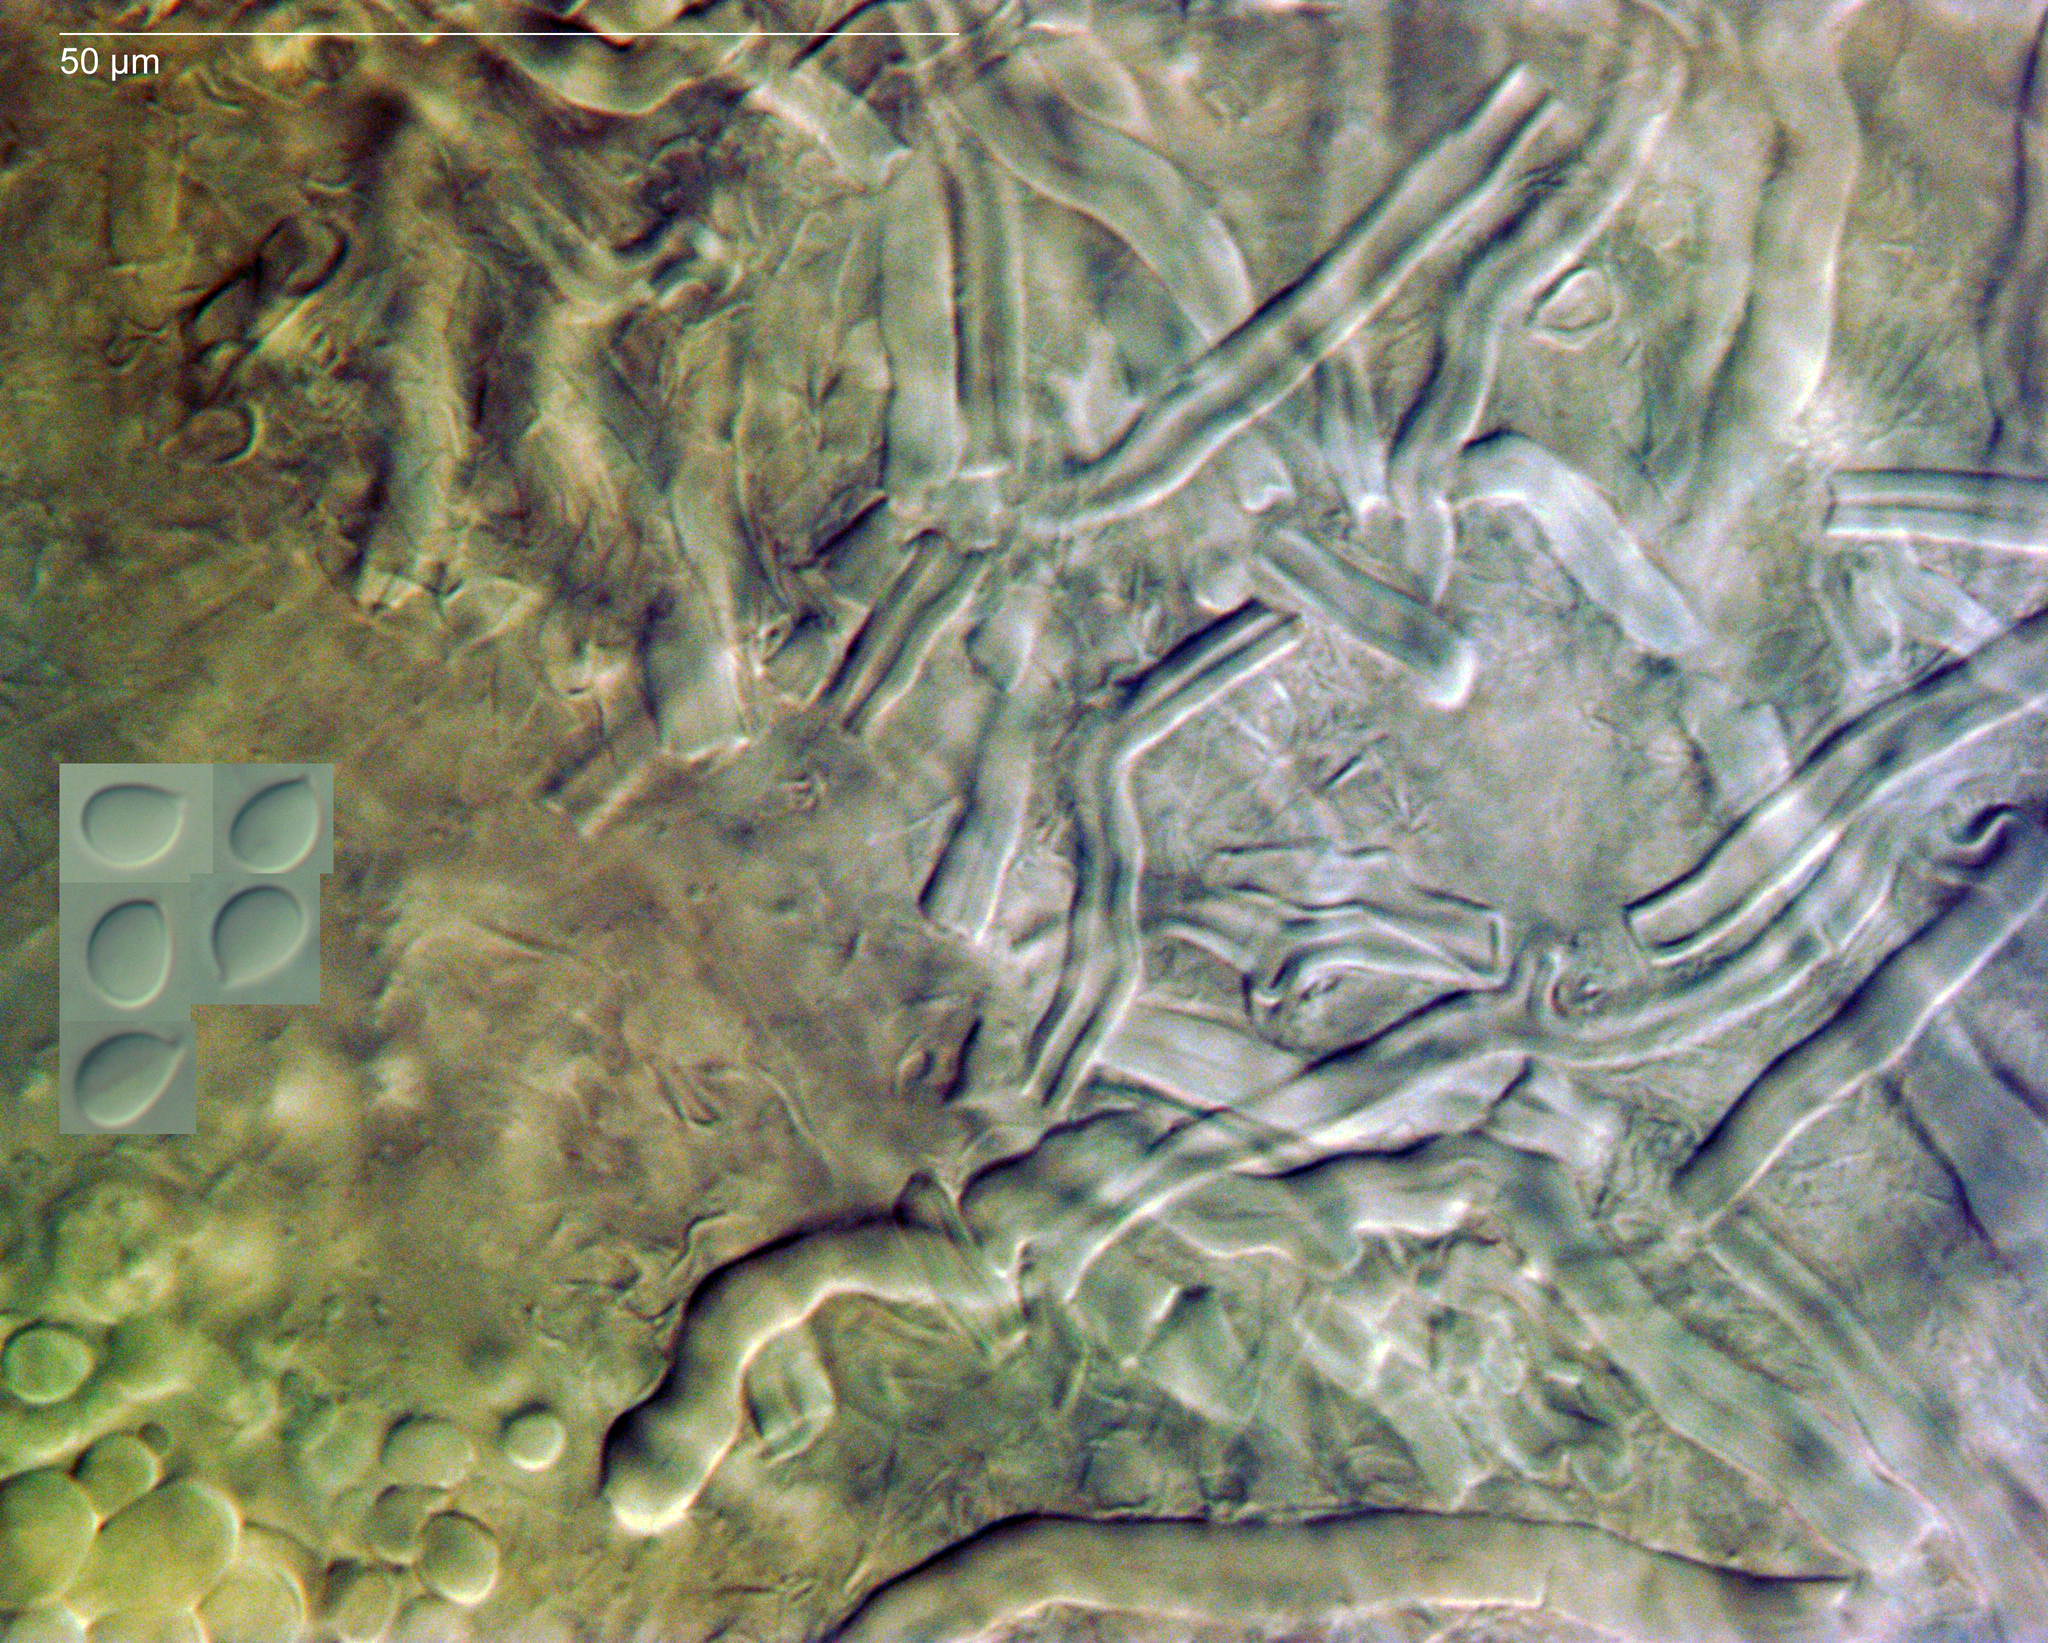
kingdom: Fungi
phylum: Basidiomycota
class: Agaricomycetes
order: Polyporales
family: Polyporaceae
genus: Ryvardenia
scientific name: Ryvardenia campyla
